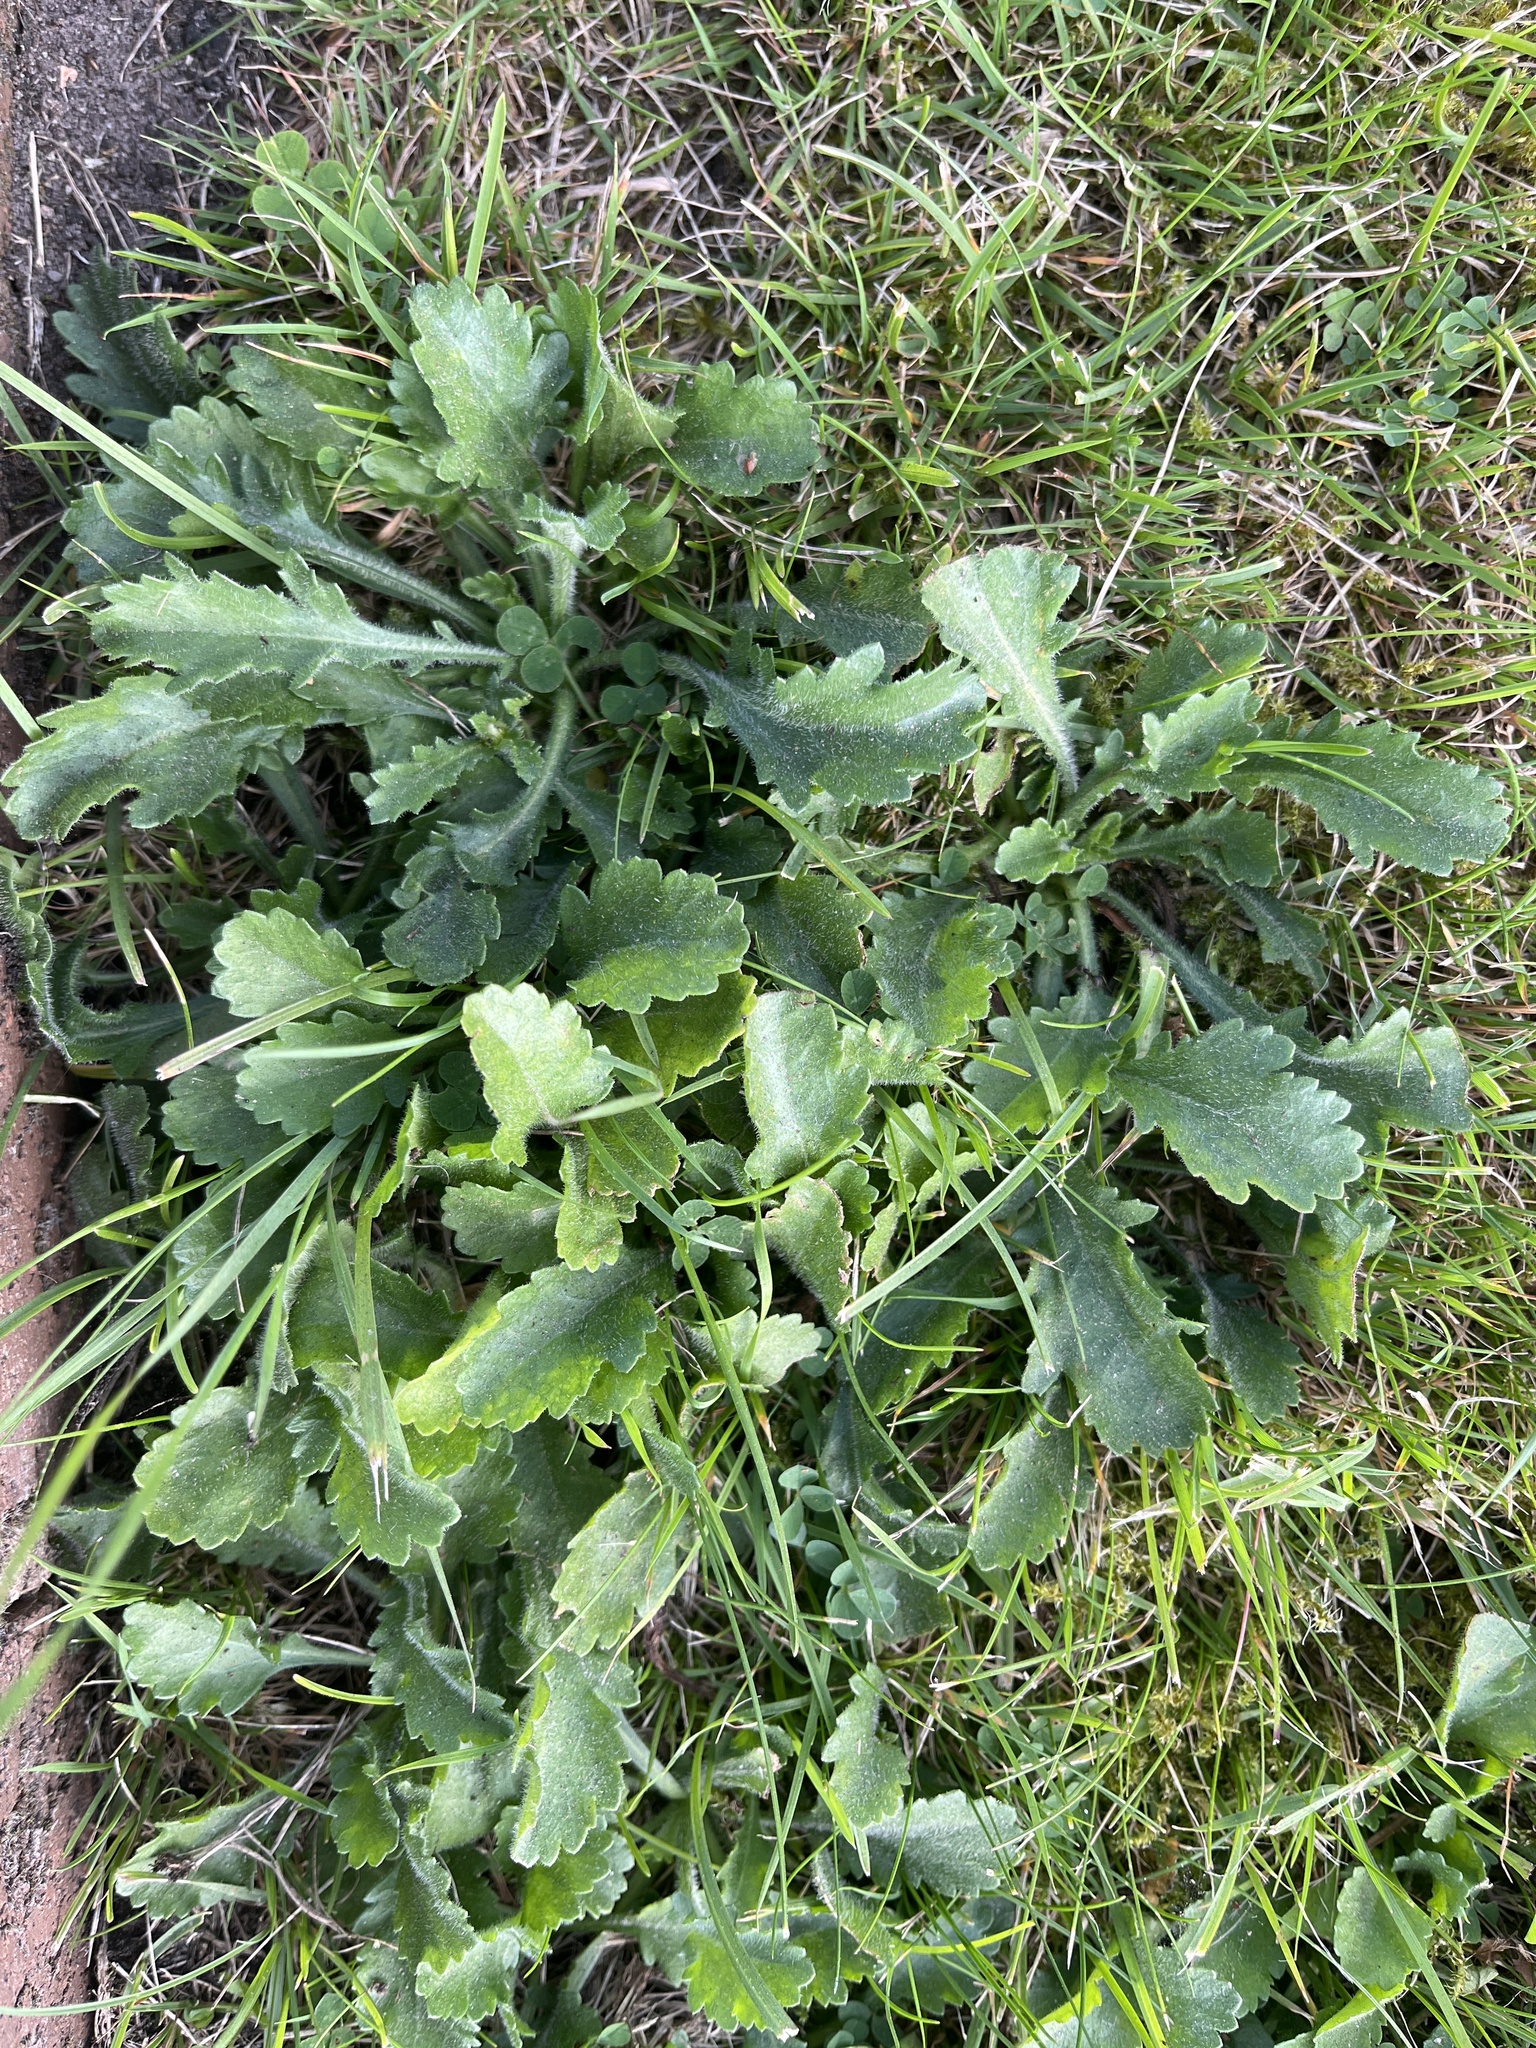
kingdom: Plantae
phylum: Tracheophyta
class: Magnoliopsida
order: Asterales
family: Asteraceae
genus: Leucanthemum
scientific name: Leucanthemum vulgare
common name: Oxeye daisy
